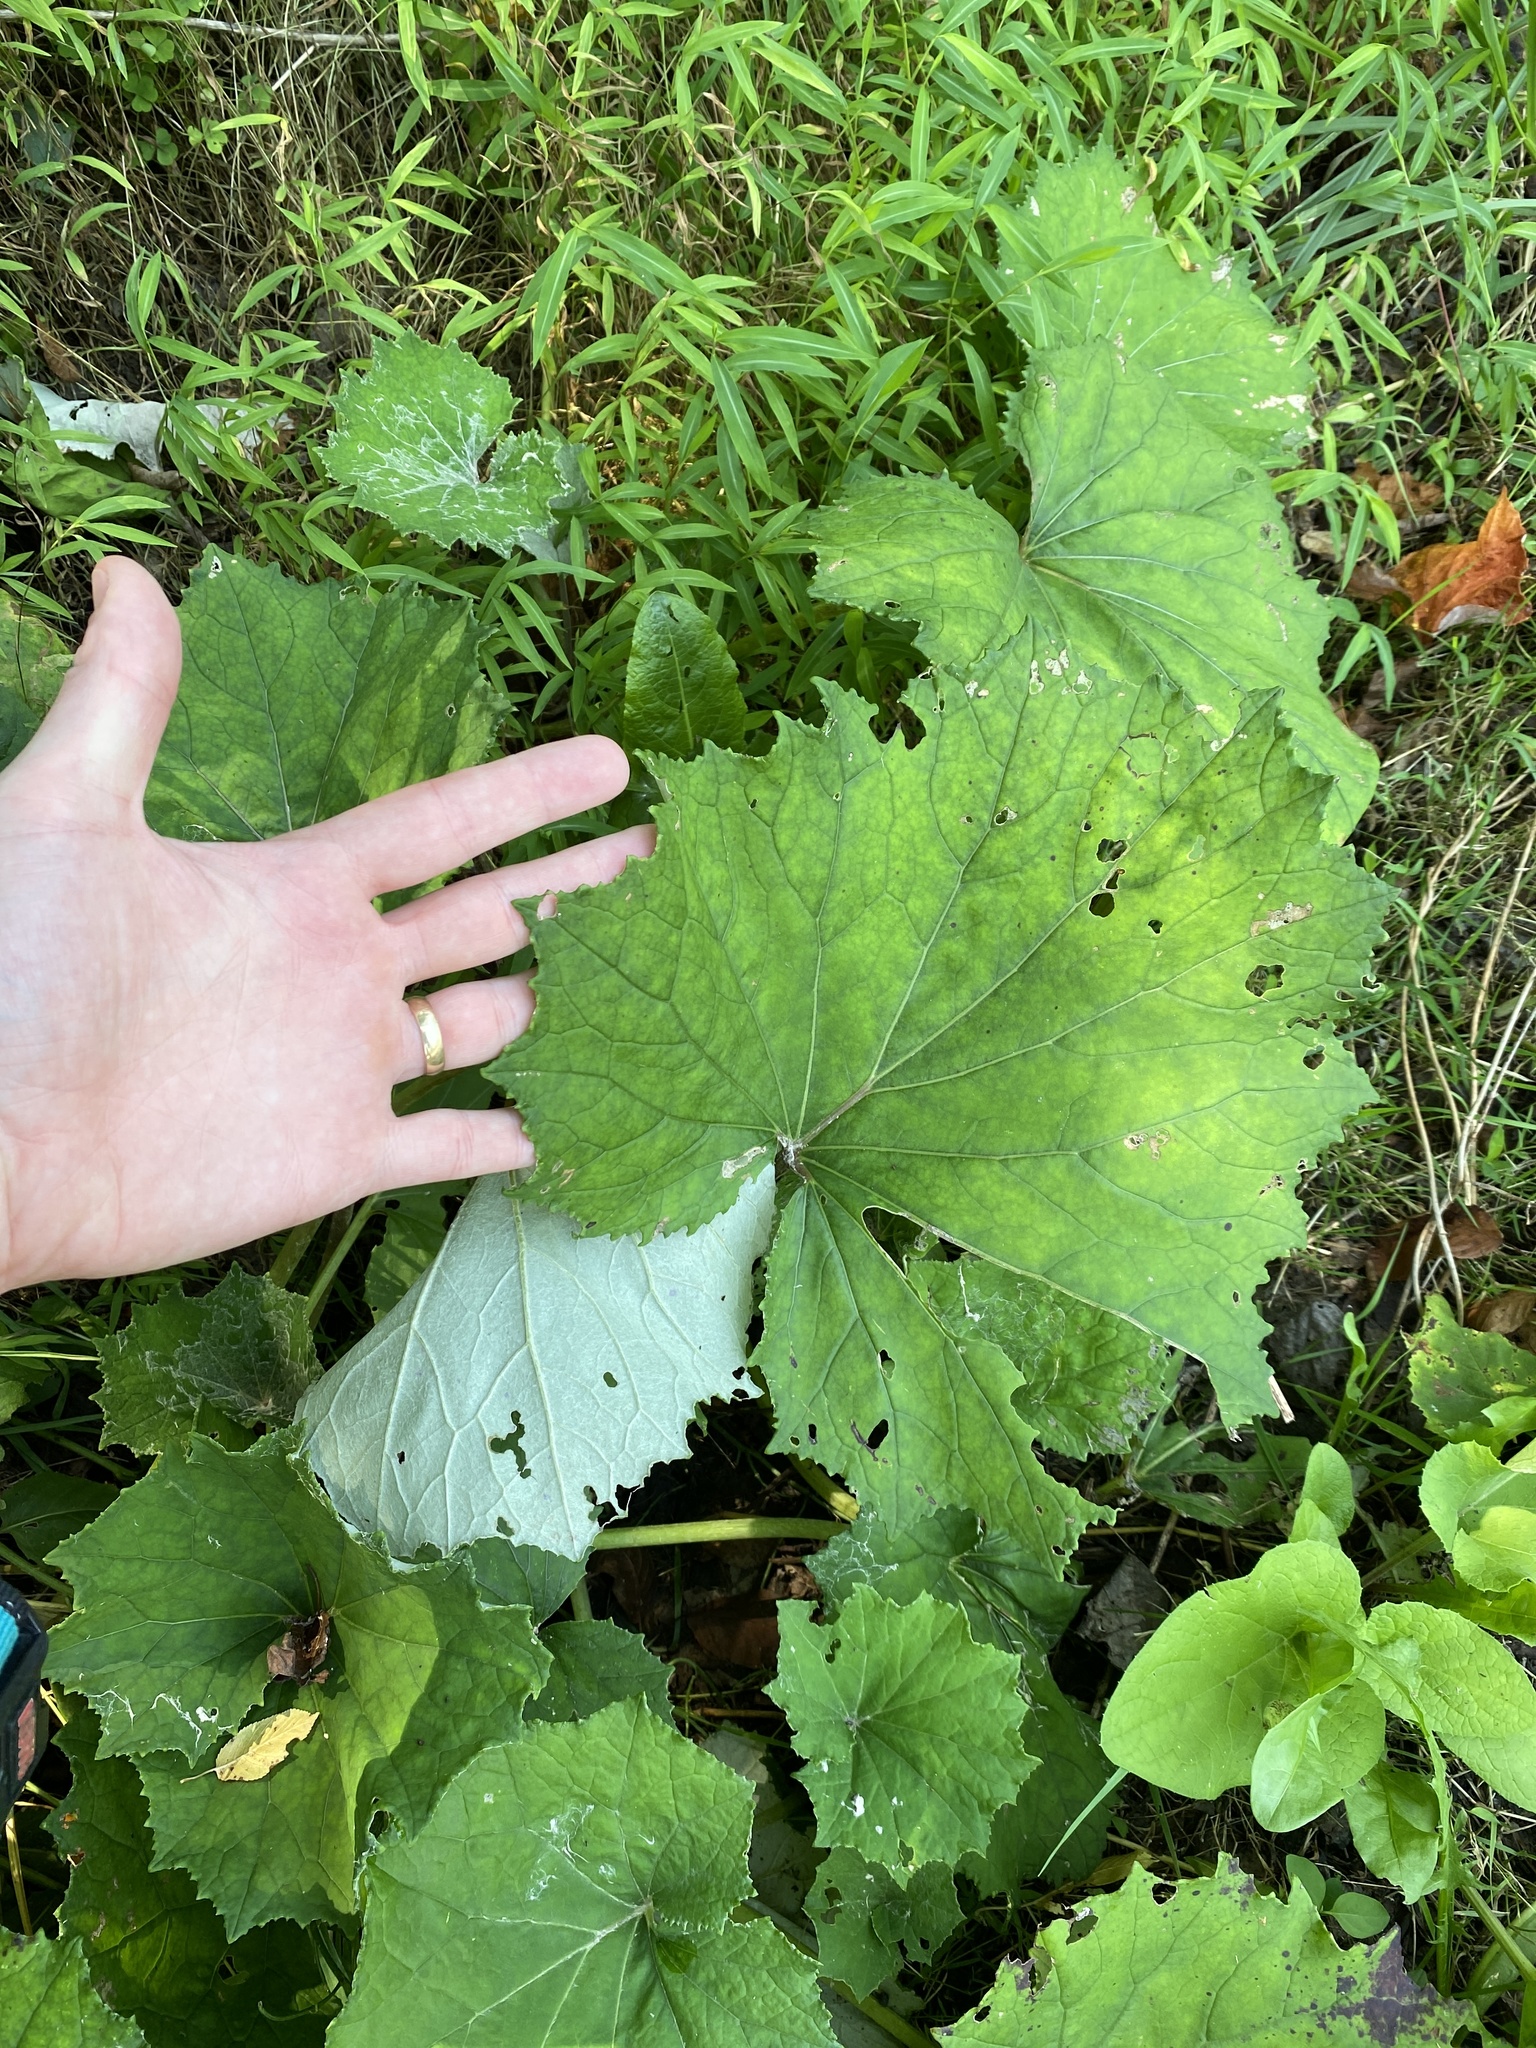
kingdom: Plantae
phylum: Tracheophyta
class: Magnoliopsida
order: Asterales
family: Asteraceae
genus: Tussilago
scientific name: Tussilago farfara
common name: Coltsfoot
